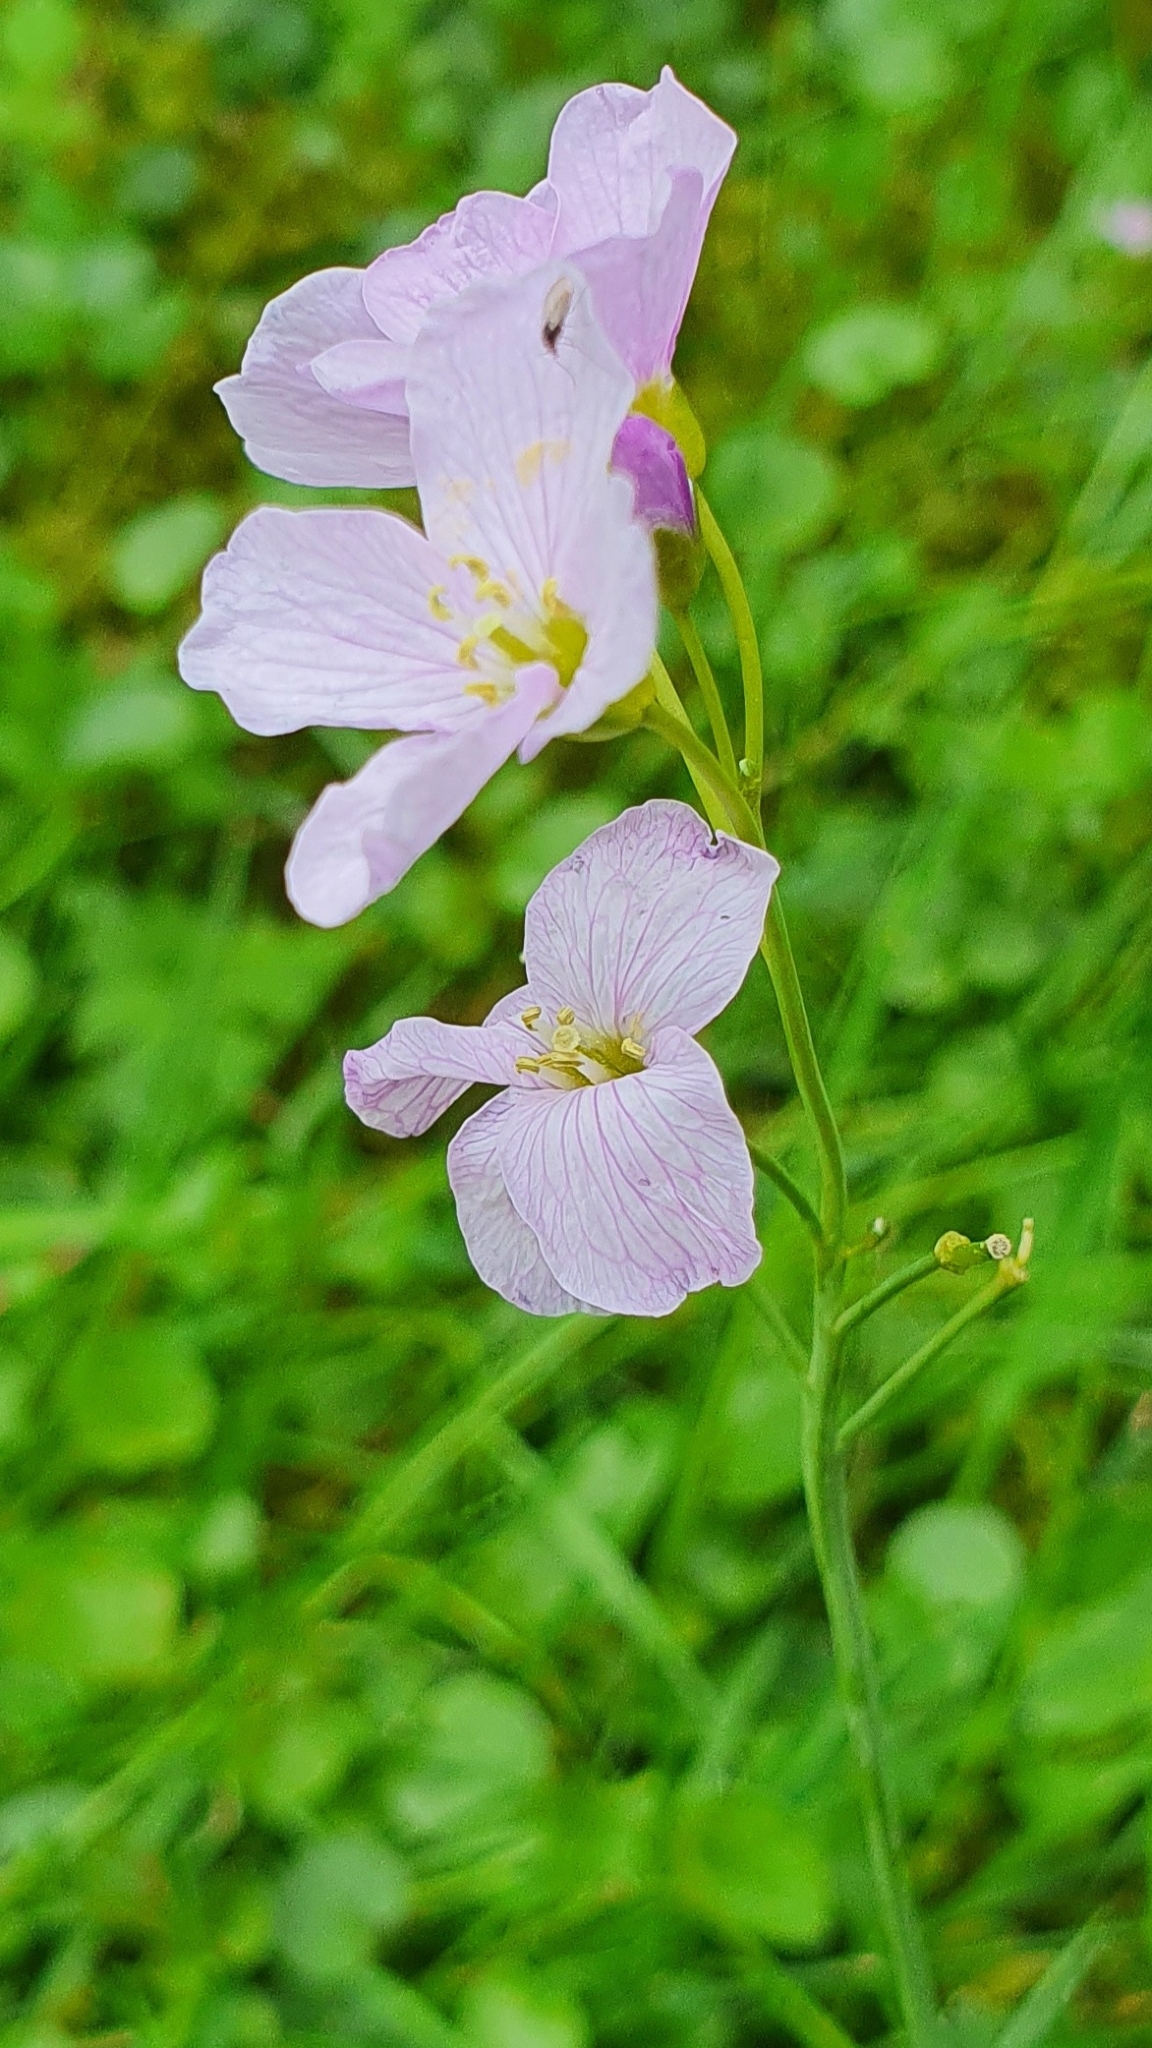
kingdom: Plantae
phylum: Tracheophyta
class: Magnoliopsida
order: Brassicales
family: Brassicaceae
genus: Cardamine
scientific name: Cardamine pratensis
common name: Cuckoo flower
